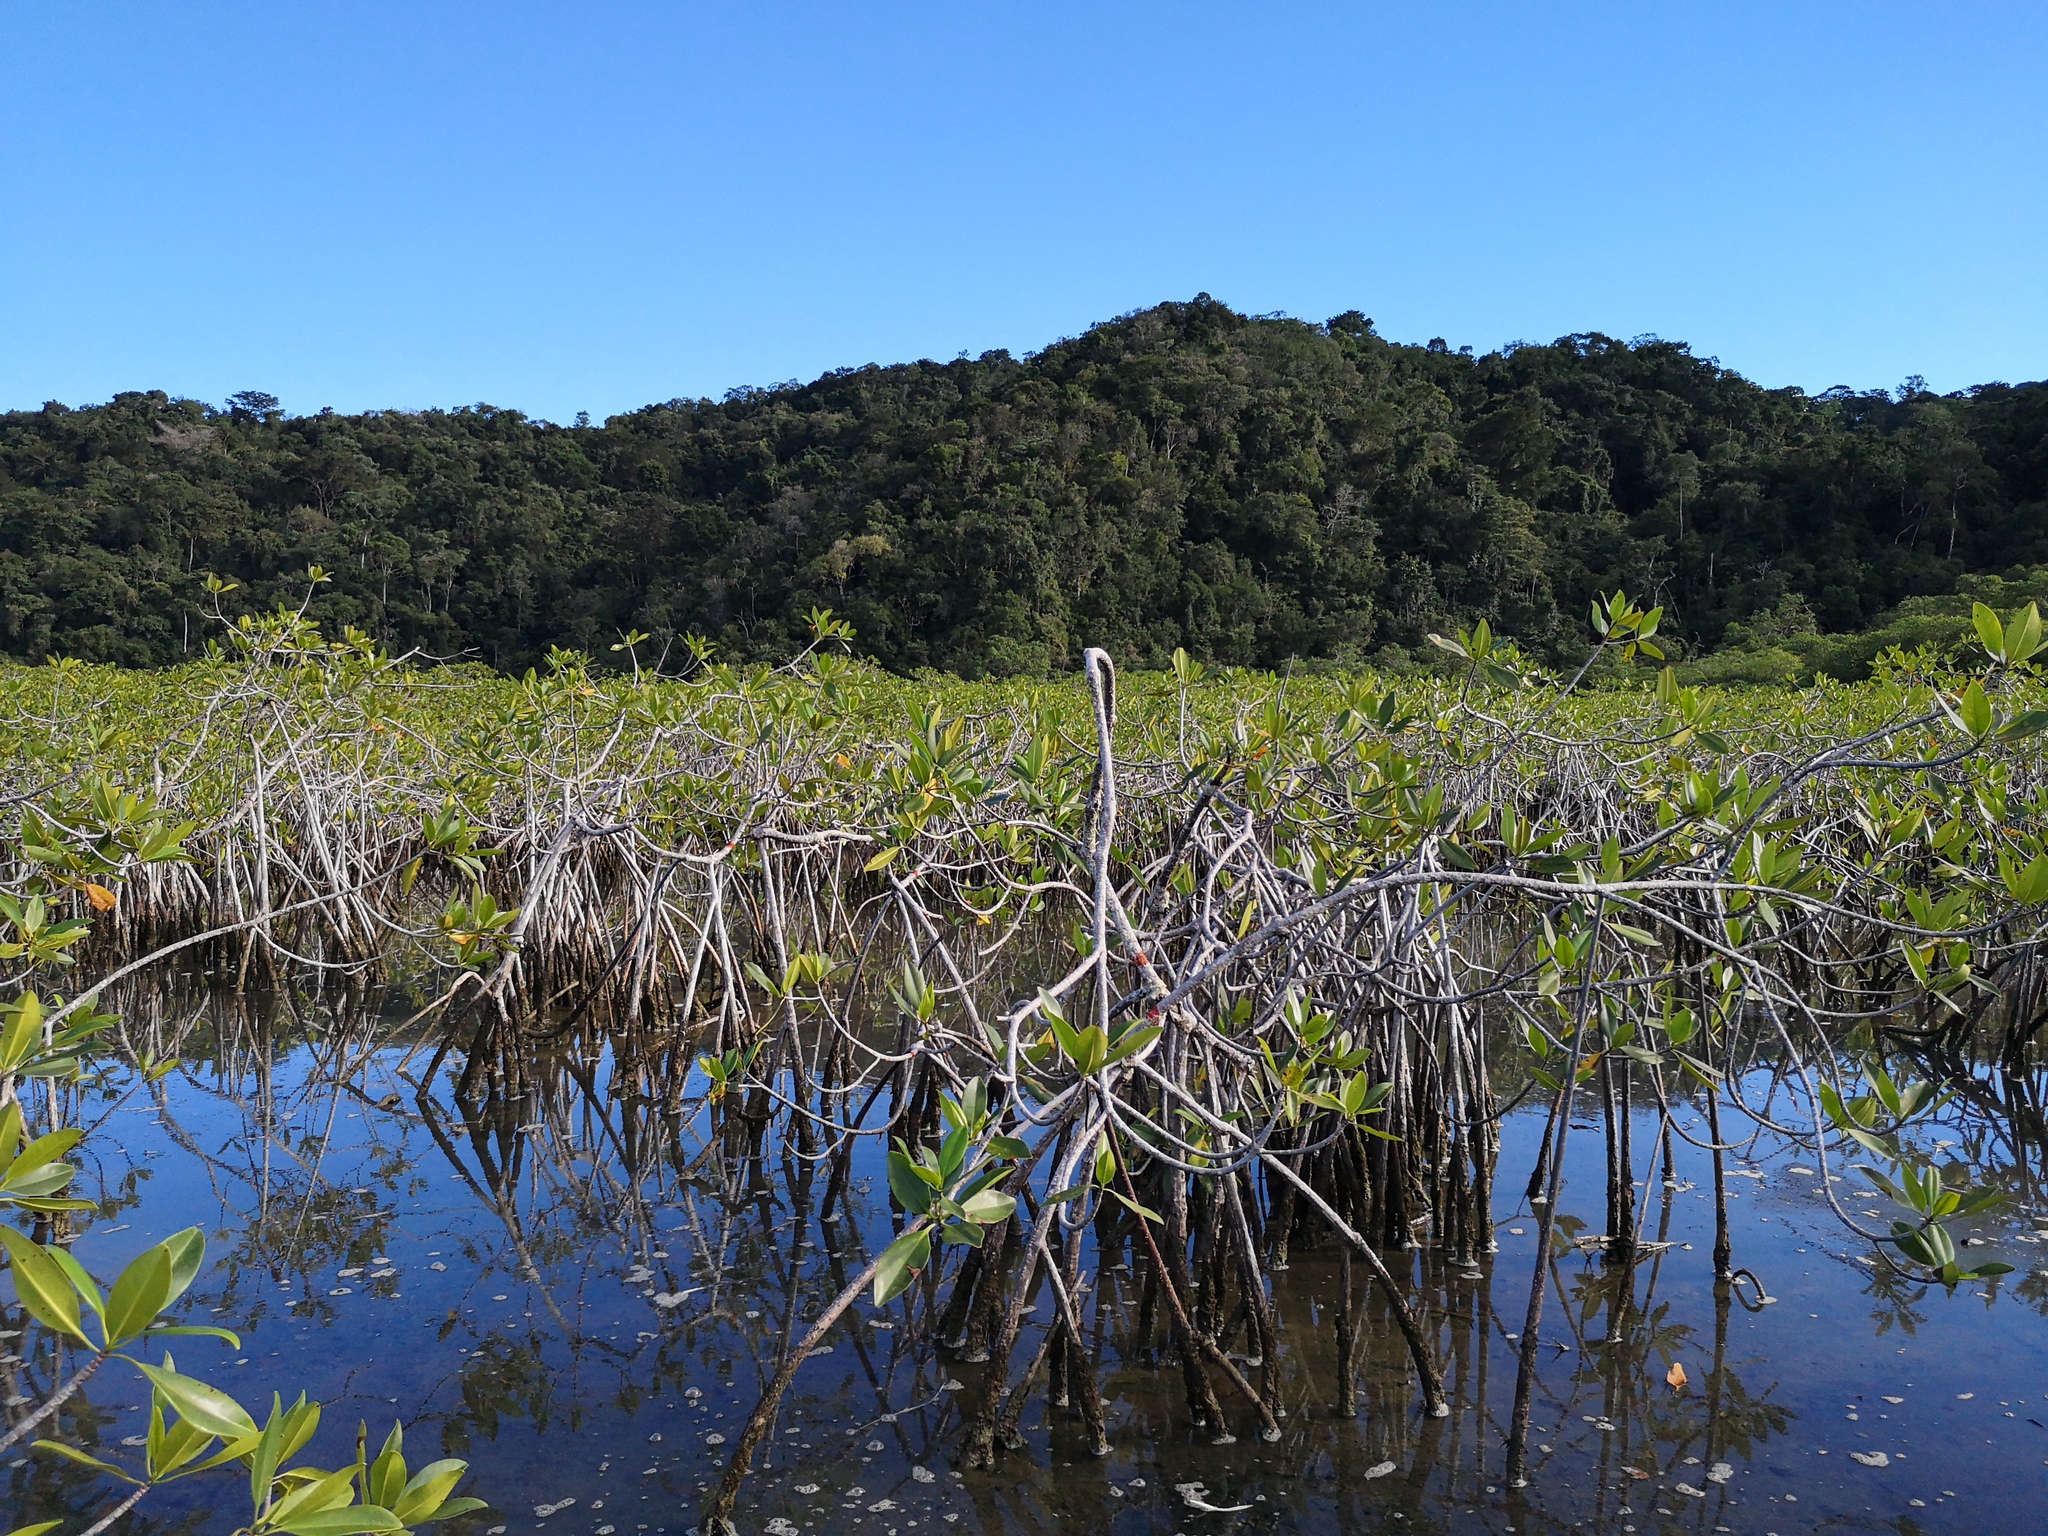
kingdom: Plantae
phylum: Tracheophyta
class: Magnoliopsida
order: Malpighiales
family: Rhizophoraceae
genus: Rhizophora
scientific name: Rhizophora mangle
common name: Red mangrove
